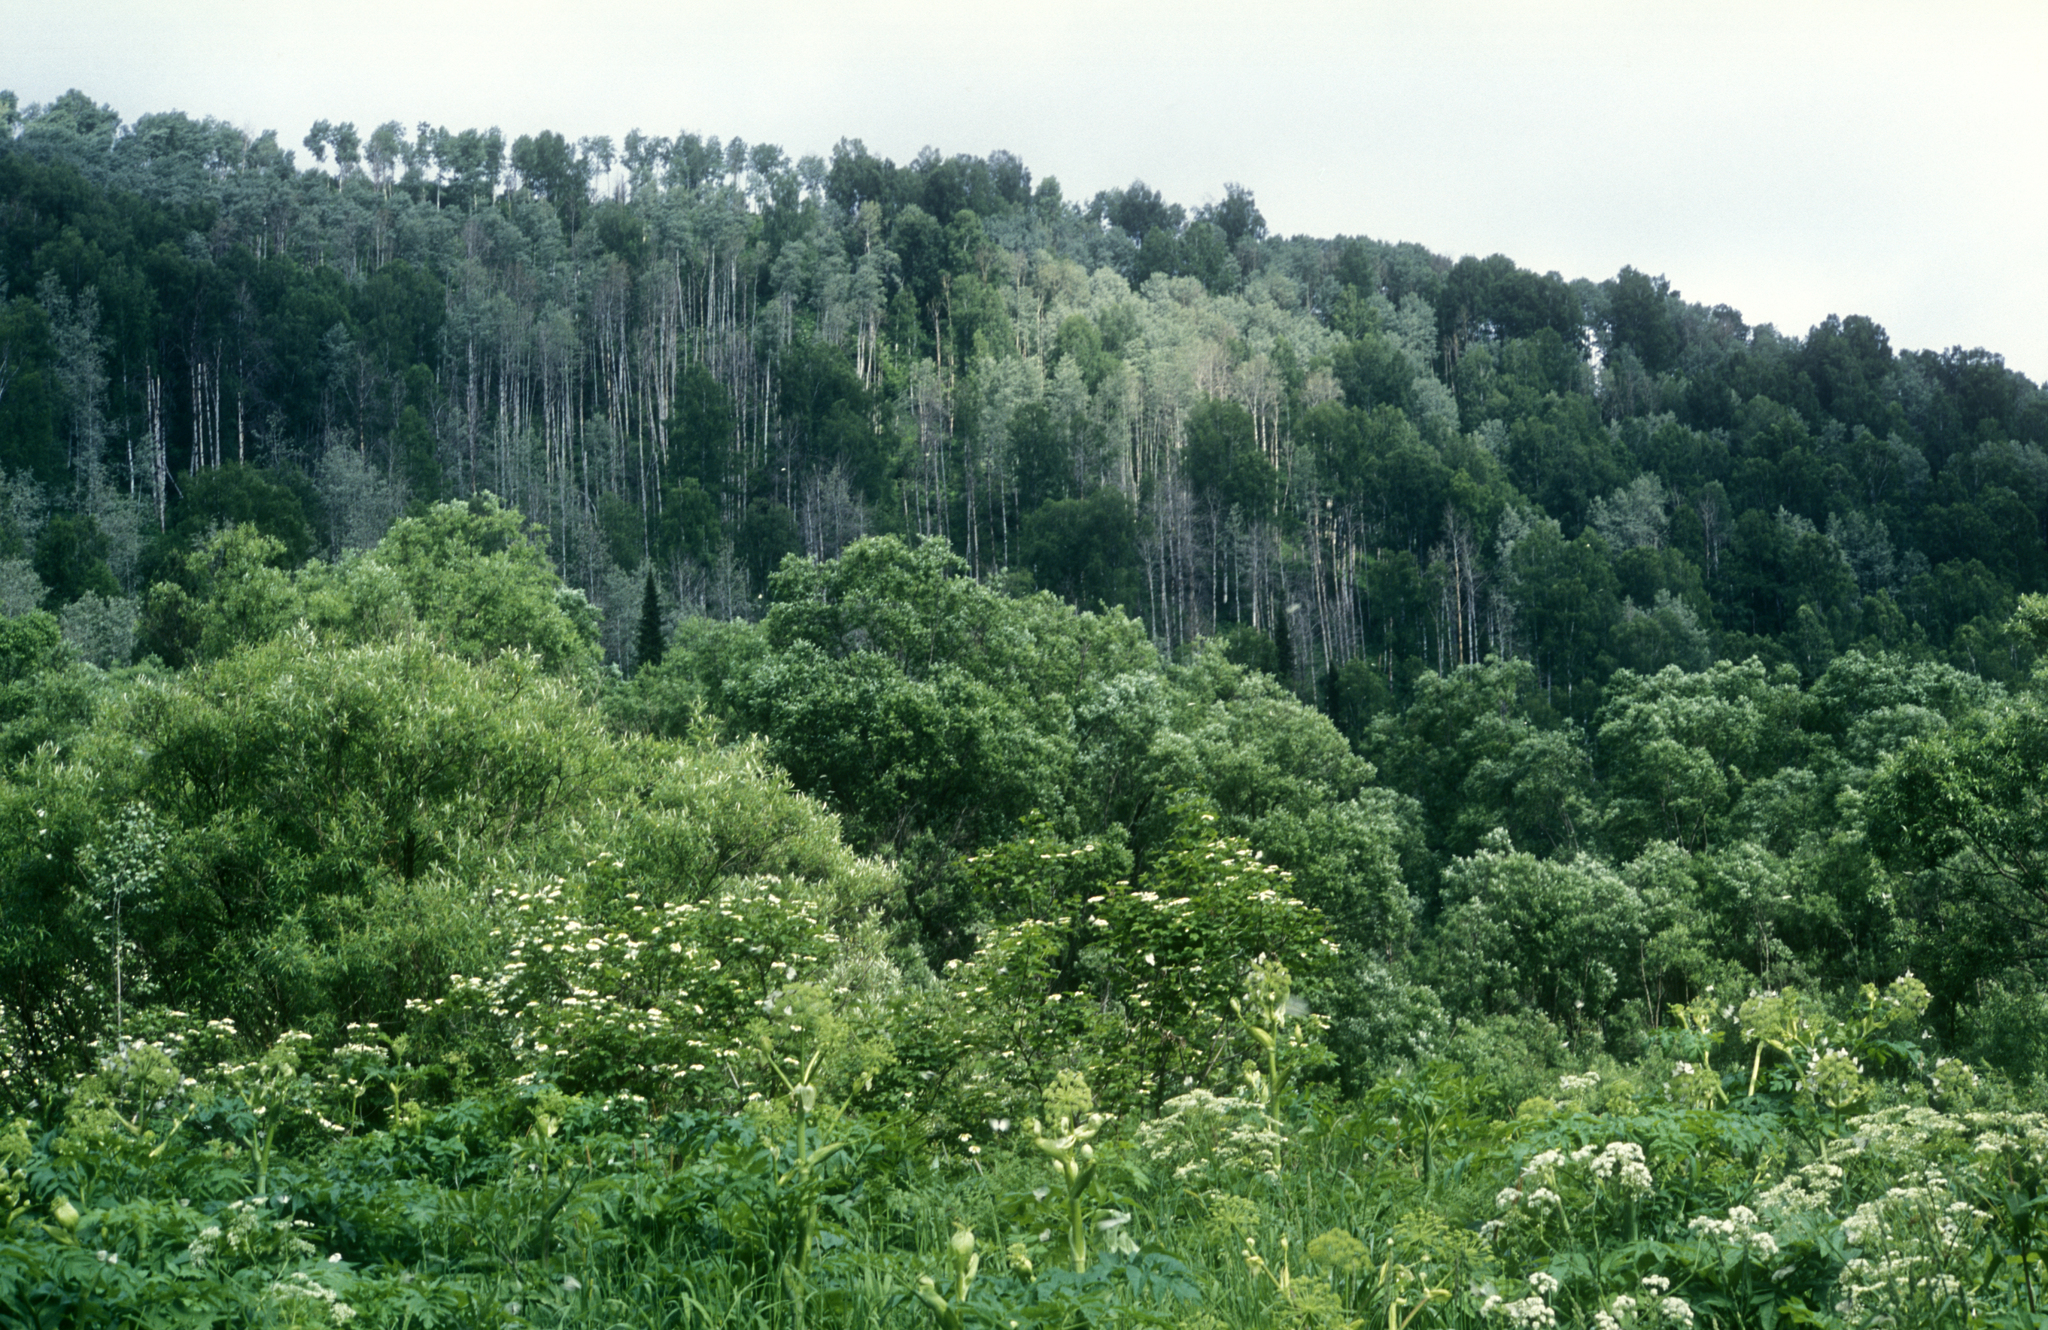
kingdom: Plantae
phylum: Tracheophyta
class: Magnoliopsida
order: Malpighiales
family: Salicaceae
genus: Populus
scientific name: Populus tremula
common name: European aspen
